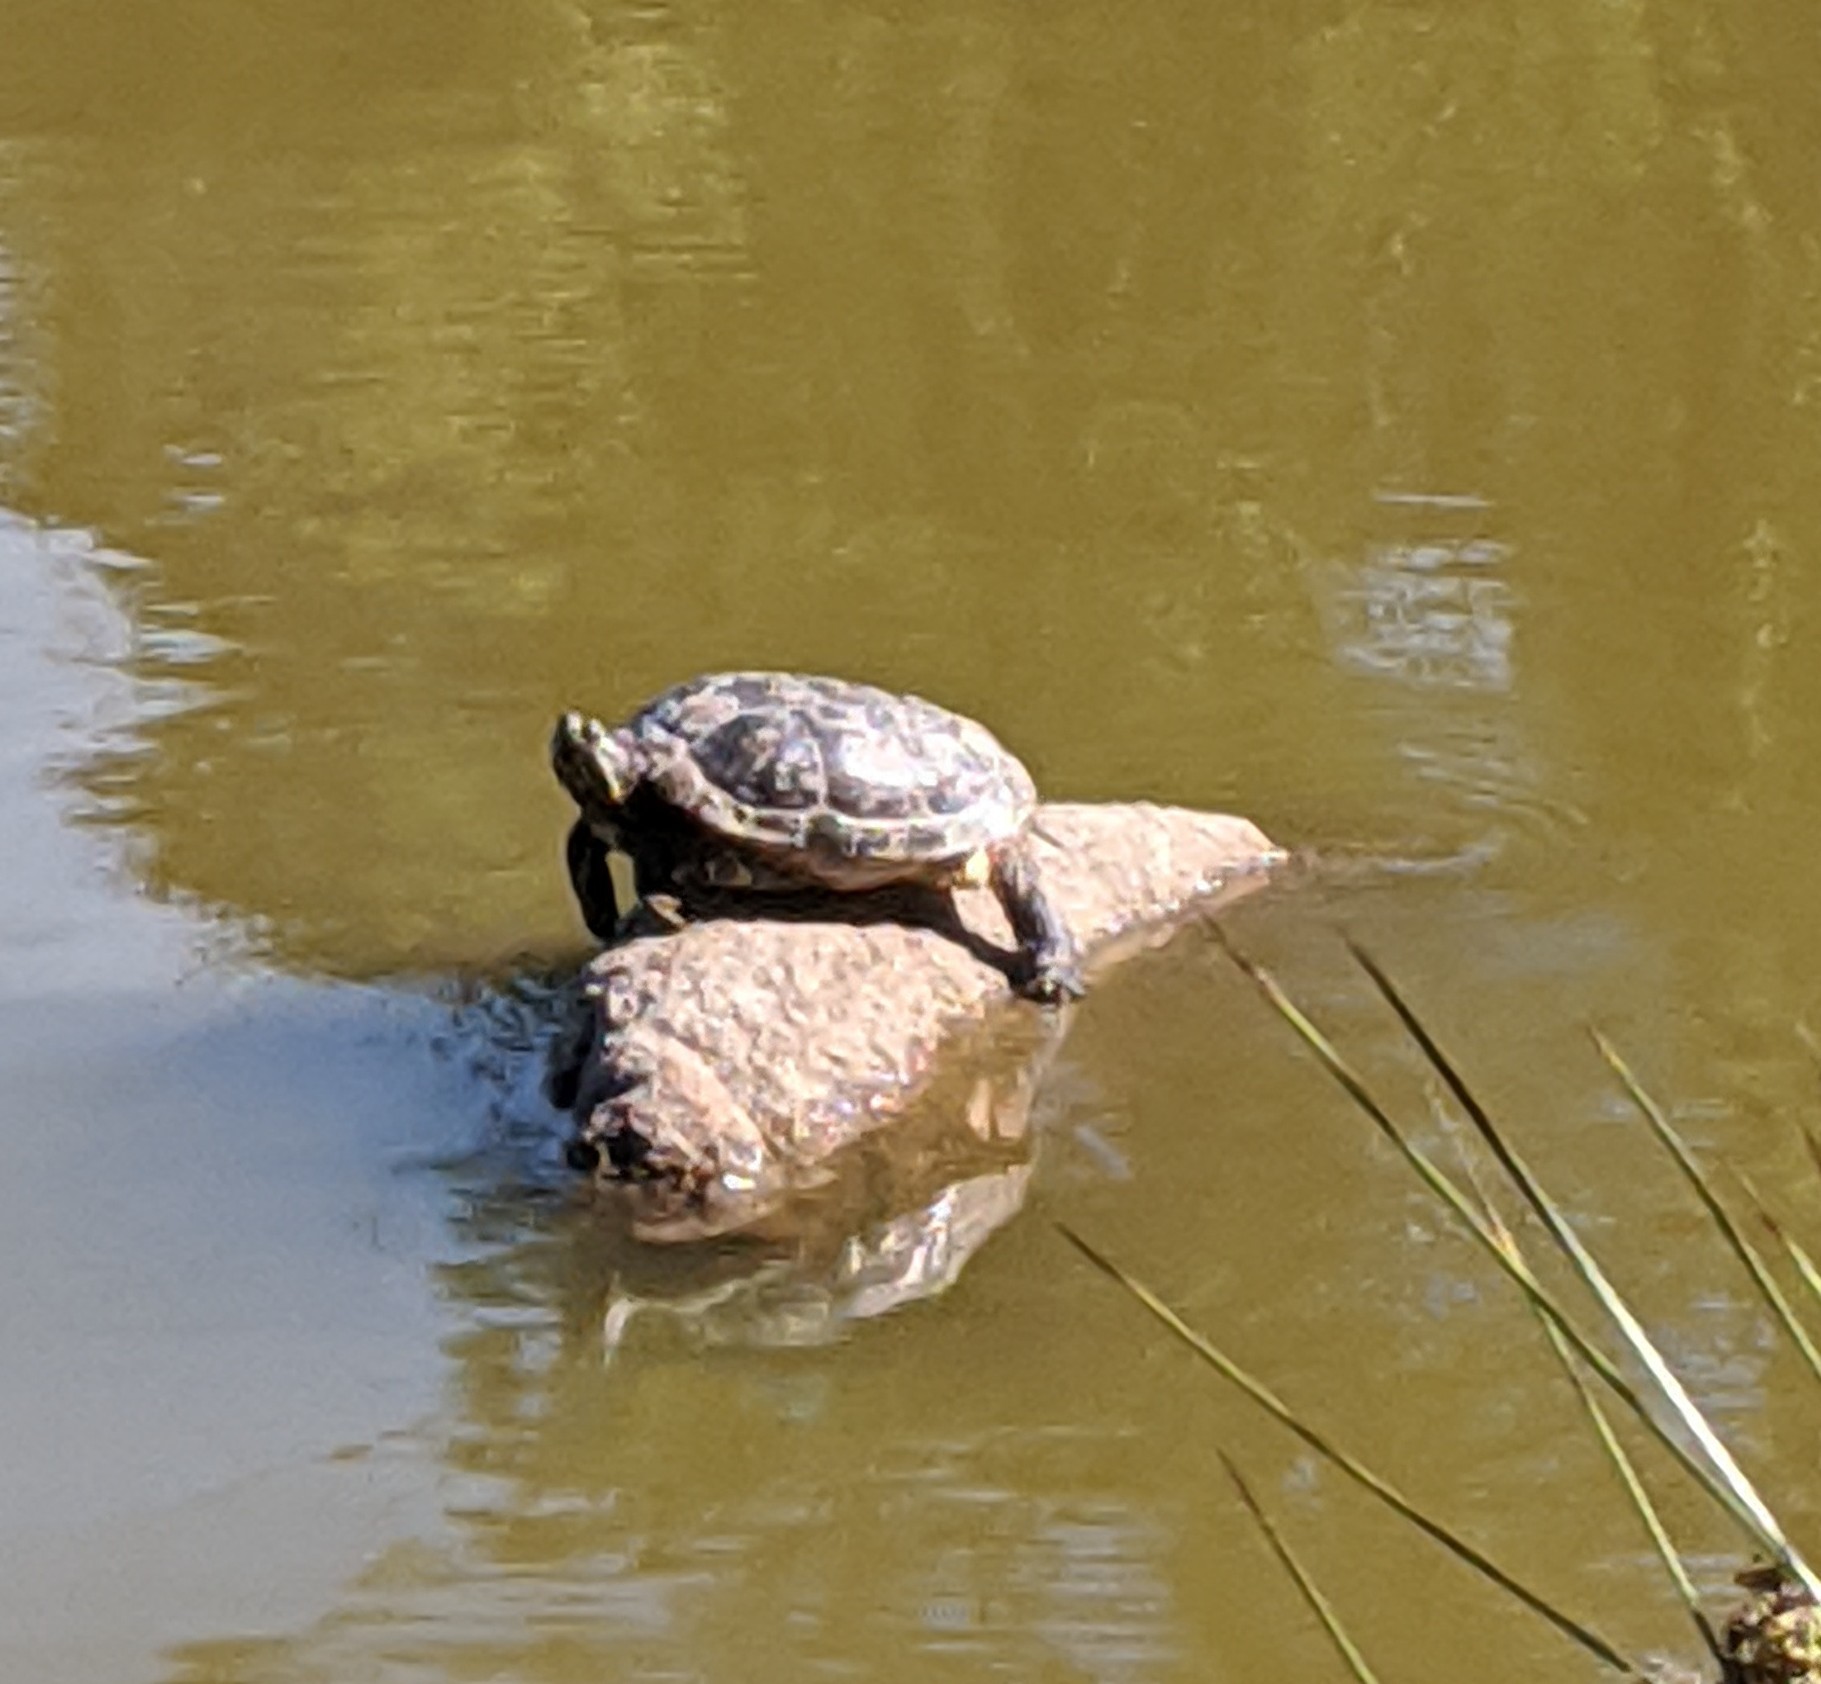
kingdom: Animalia
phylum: Chordata
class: Testudines
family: Emydidae
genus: Trachemys
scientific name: Trachemys scripta
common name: Slider
